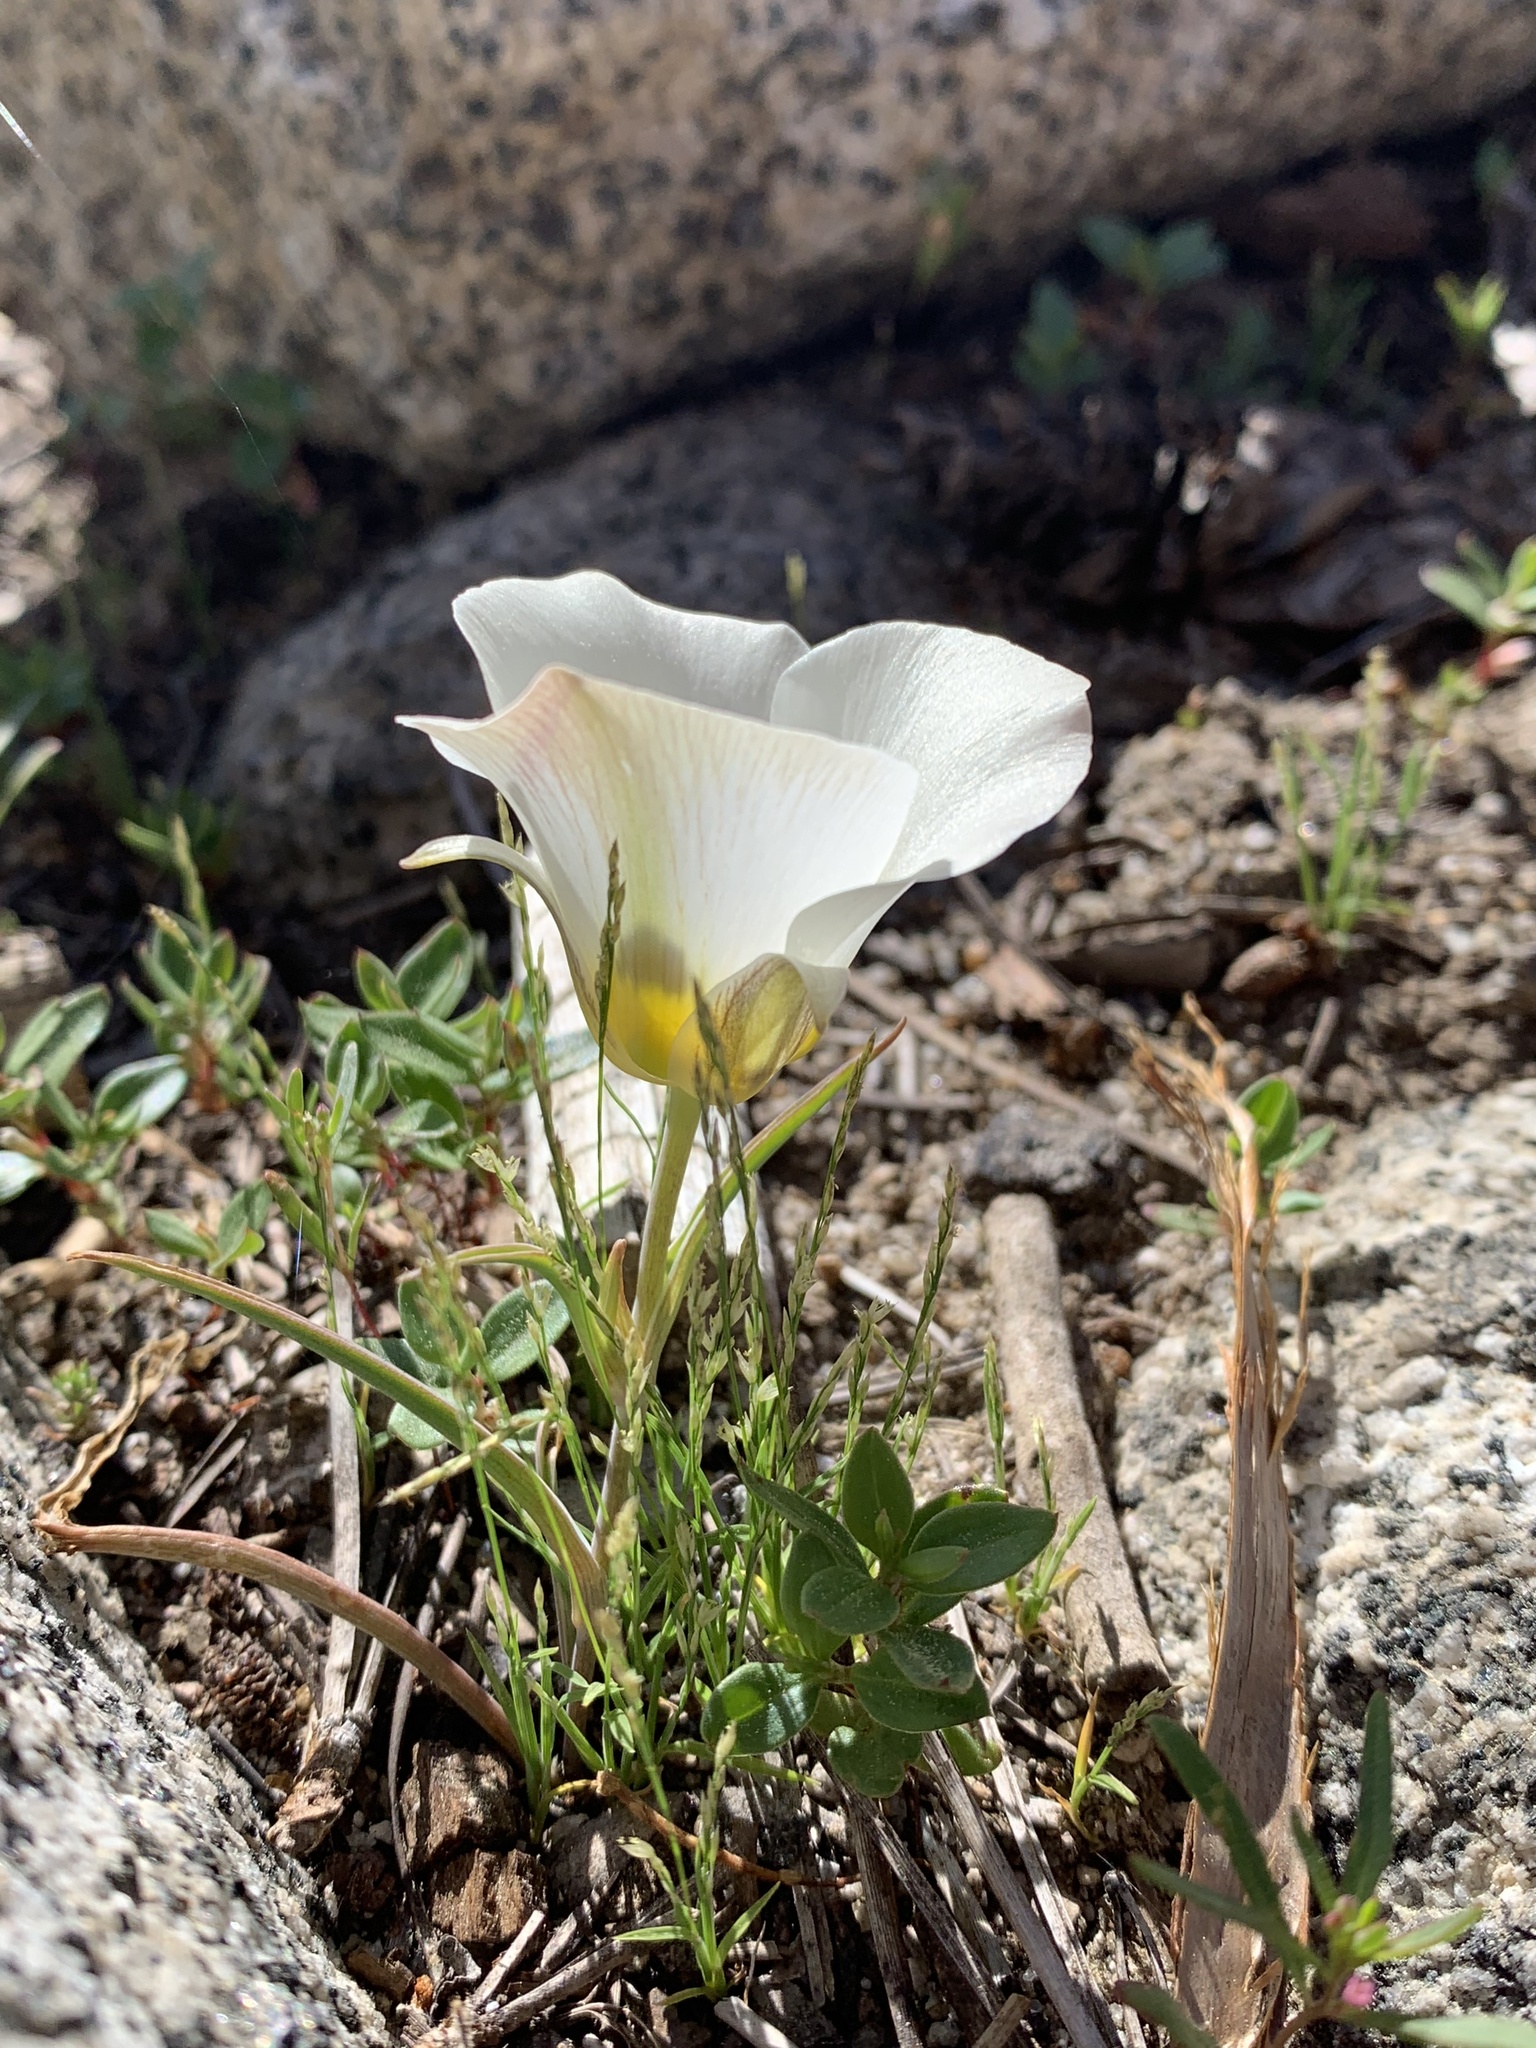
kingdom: Plantae
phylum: Tracheophyta
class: Liliopsida
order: Liliales
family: Liliaceae
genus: Calochortus
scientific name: Calochortus leichtlinii
